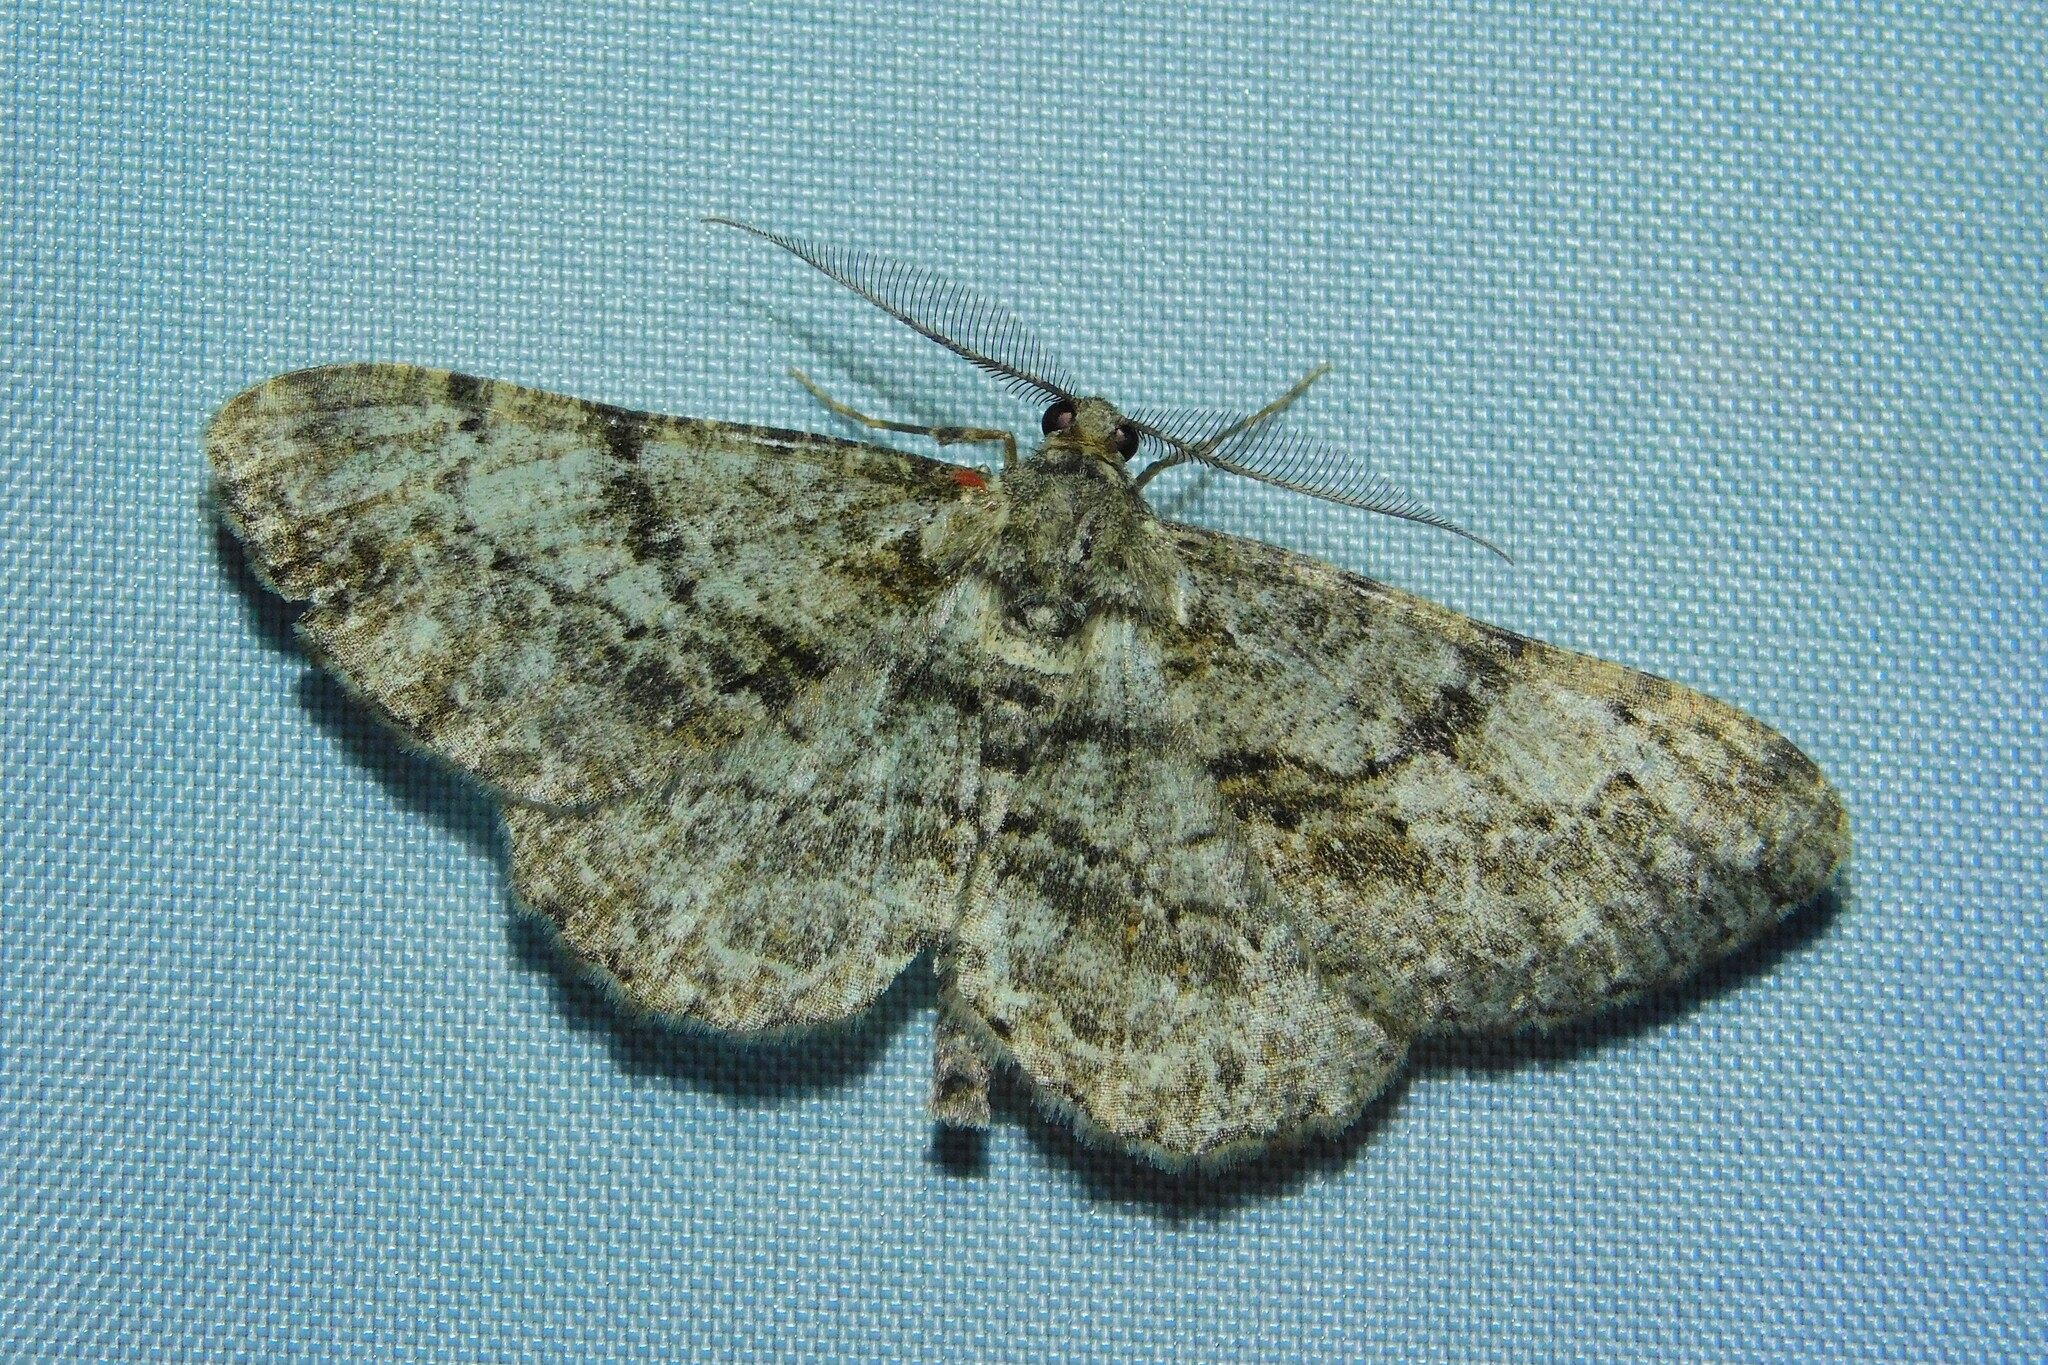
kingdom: Animalia
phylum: Arthropoda
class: Insecta
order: Lepidoptera
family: Geometridae
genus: Peribatodes
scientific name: Peribatodes rhomboidaria
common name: Willow beauty
